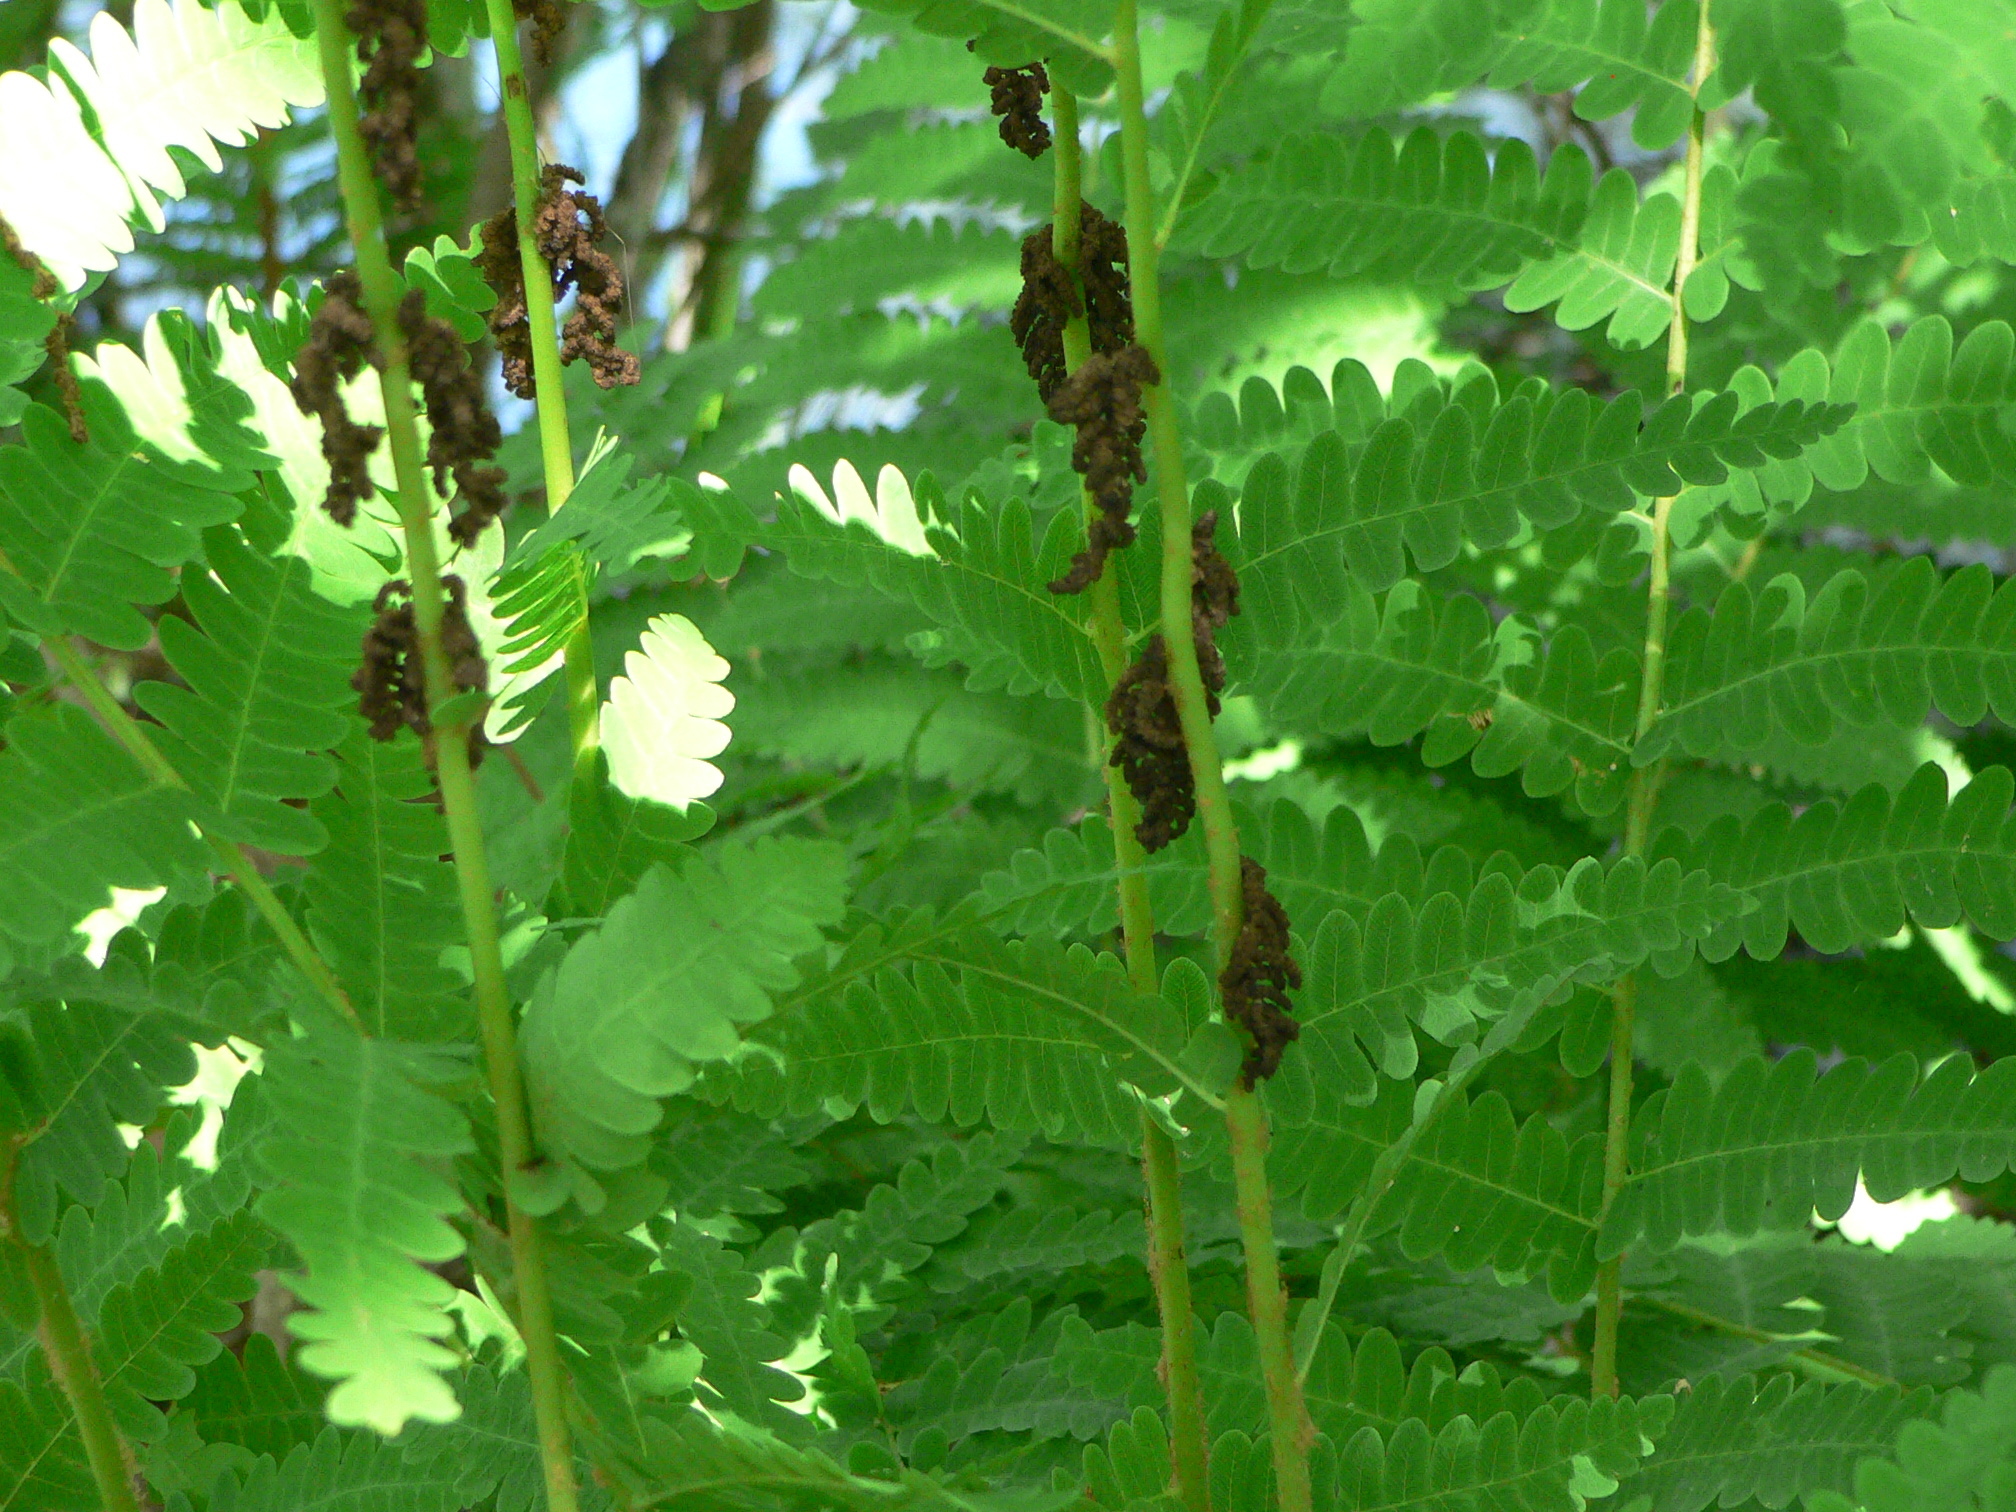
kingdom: Plantae
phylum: Tracheophyta
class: Polypodiopsida
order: Osmundales
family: Osmundaceae
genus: Claytosmunda
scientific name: Claytosmunda claytoniana
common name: Clayton's fern
